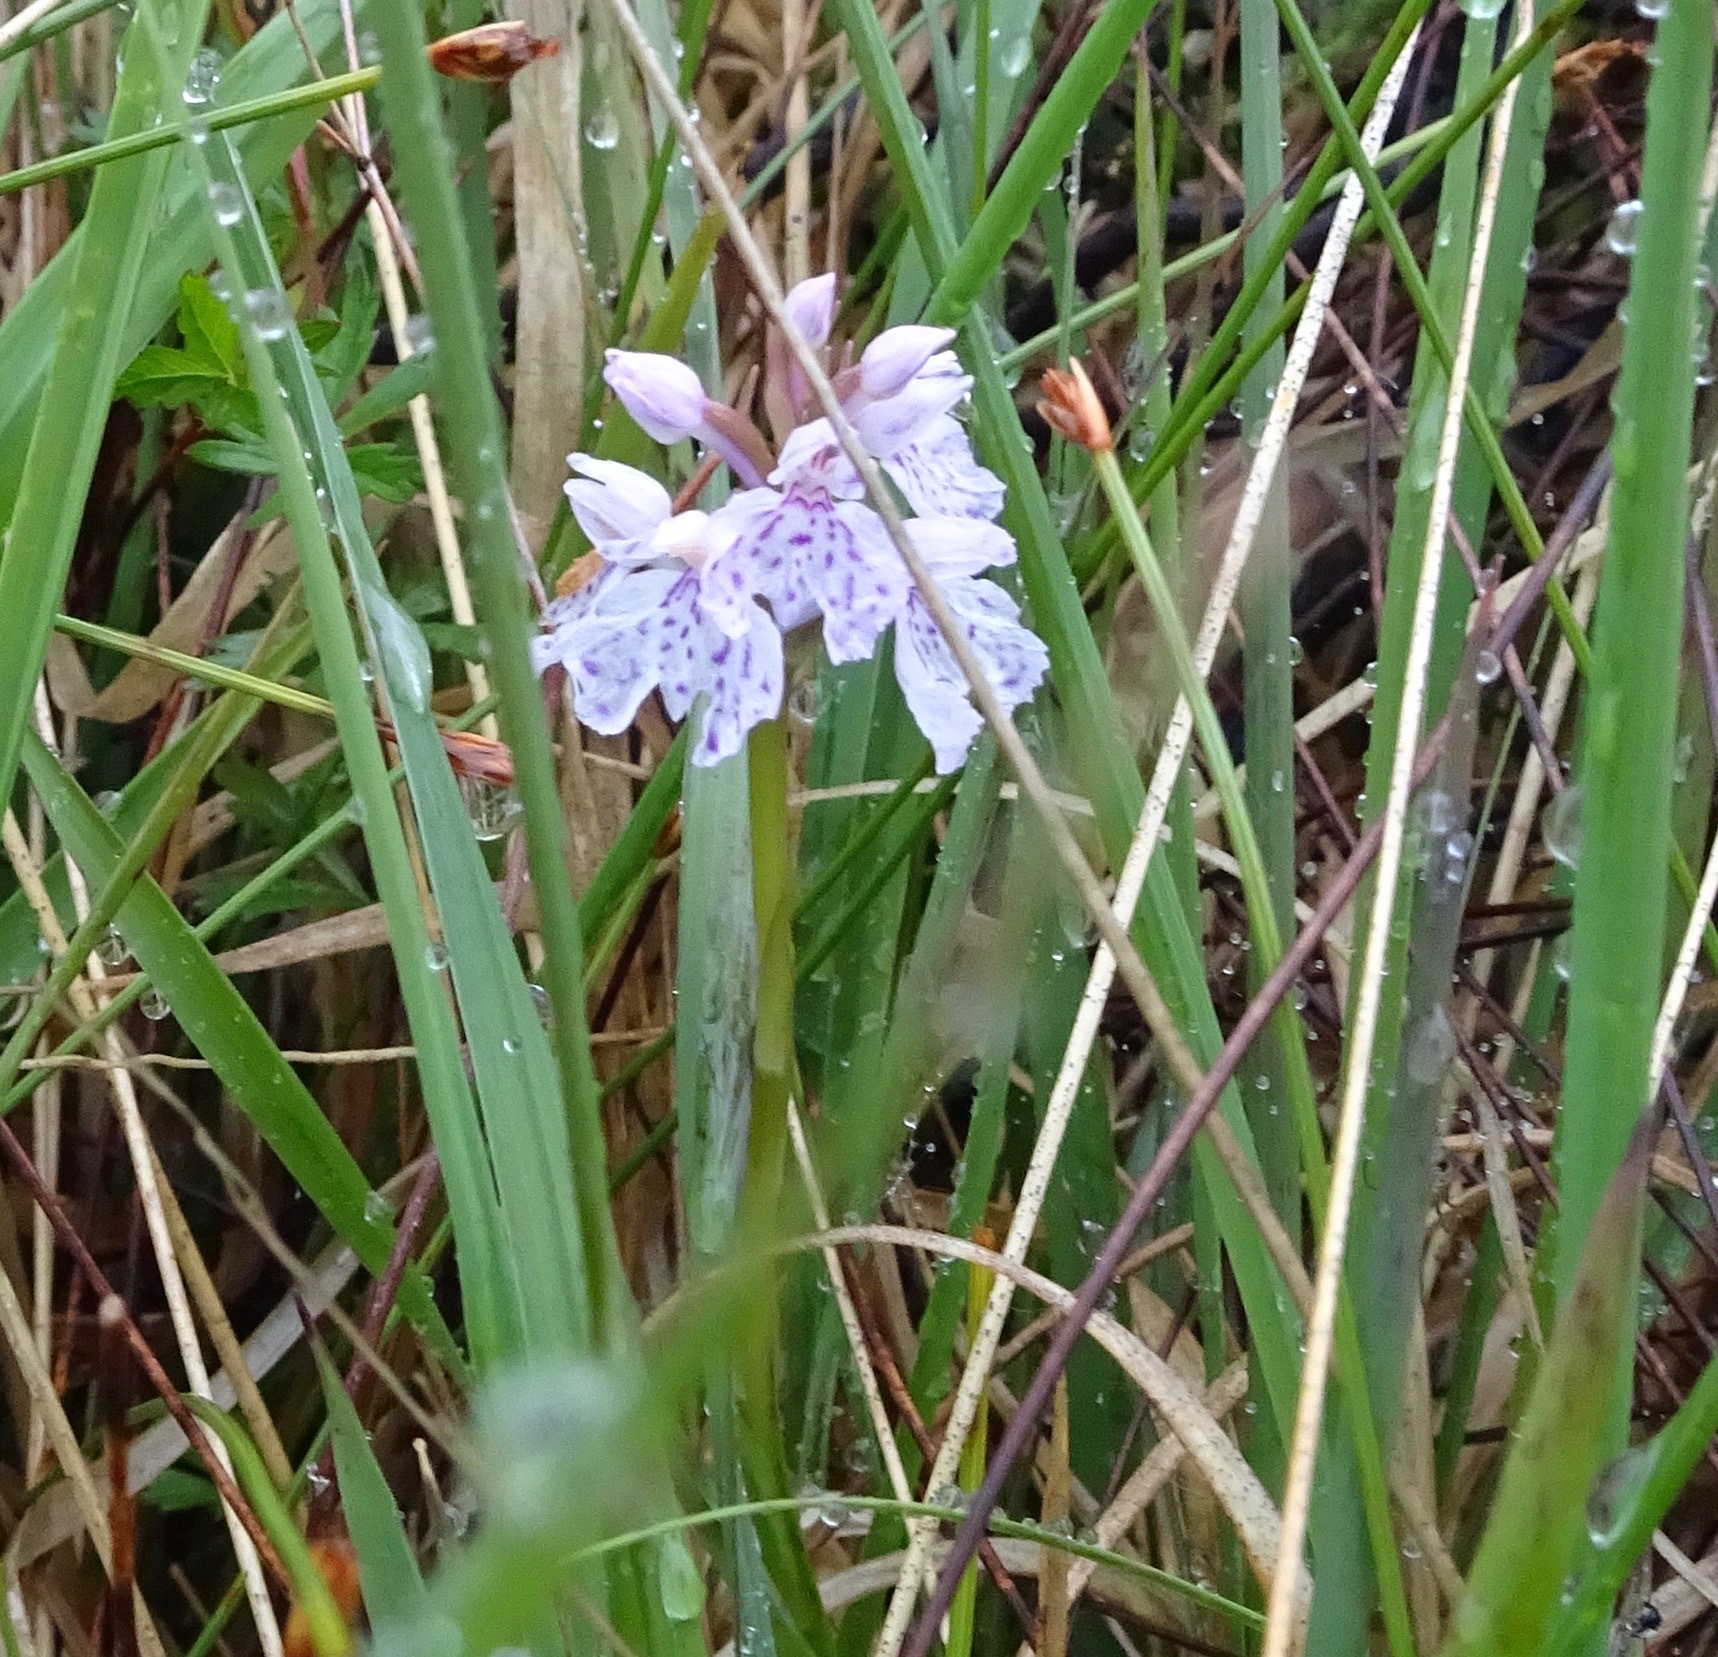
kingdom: Plantae
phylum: Tracheophyta
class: Liliopsida
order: Asparagales
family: Orchidaceae
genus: Dactylorhiza
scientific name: Dactylorhiza maculata
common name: Heath spotted-orchid
